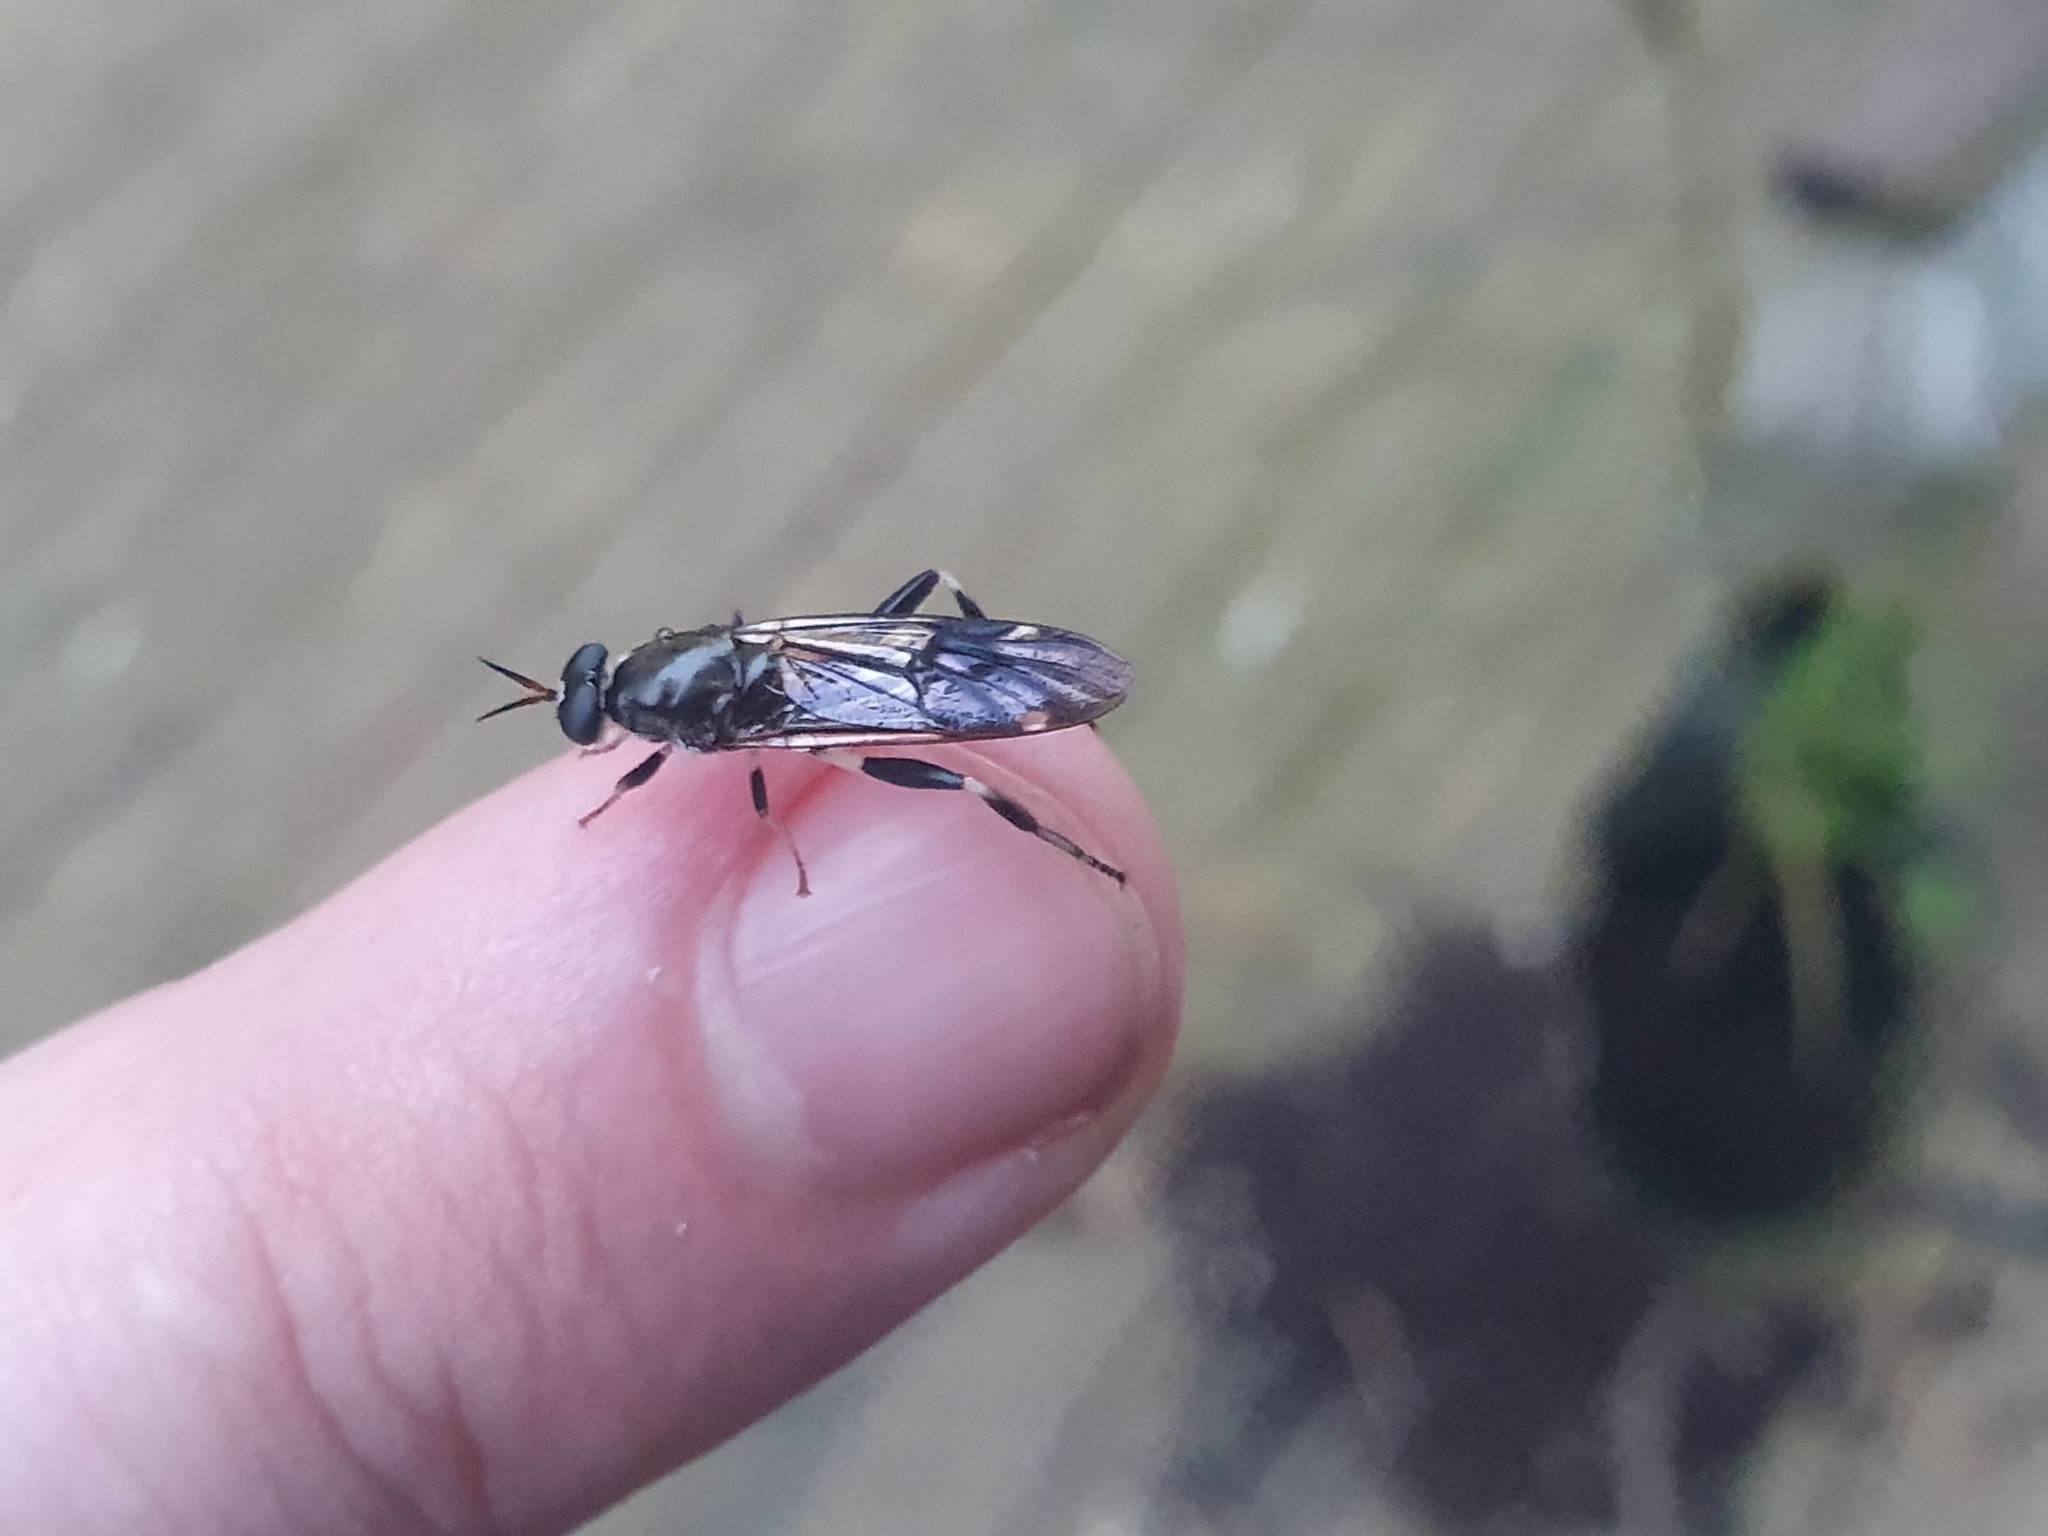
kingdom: Animalia
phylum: Arthropoda
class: Insecta
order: Diptera
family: Stratiomyidae
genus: Exaireta
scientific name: Exaireta spinigera
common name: Blue soldier fly
